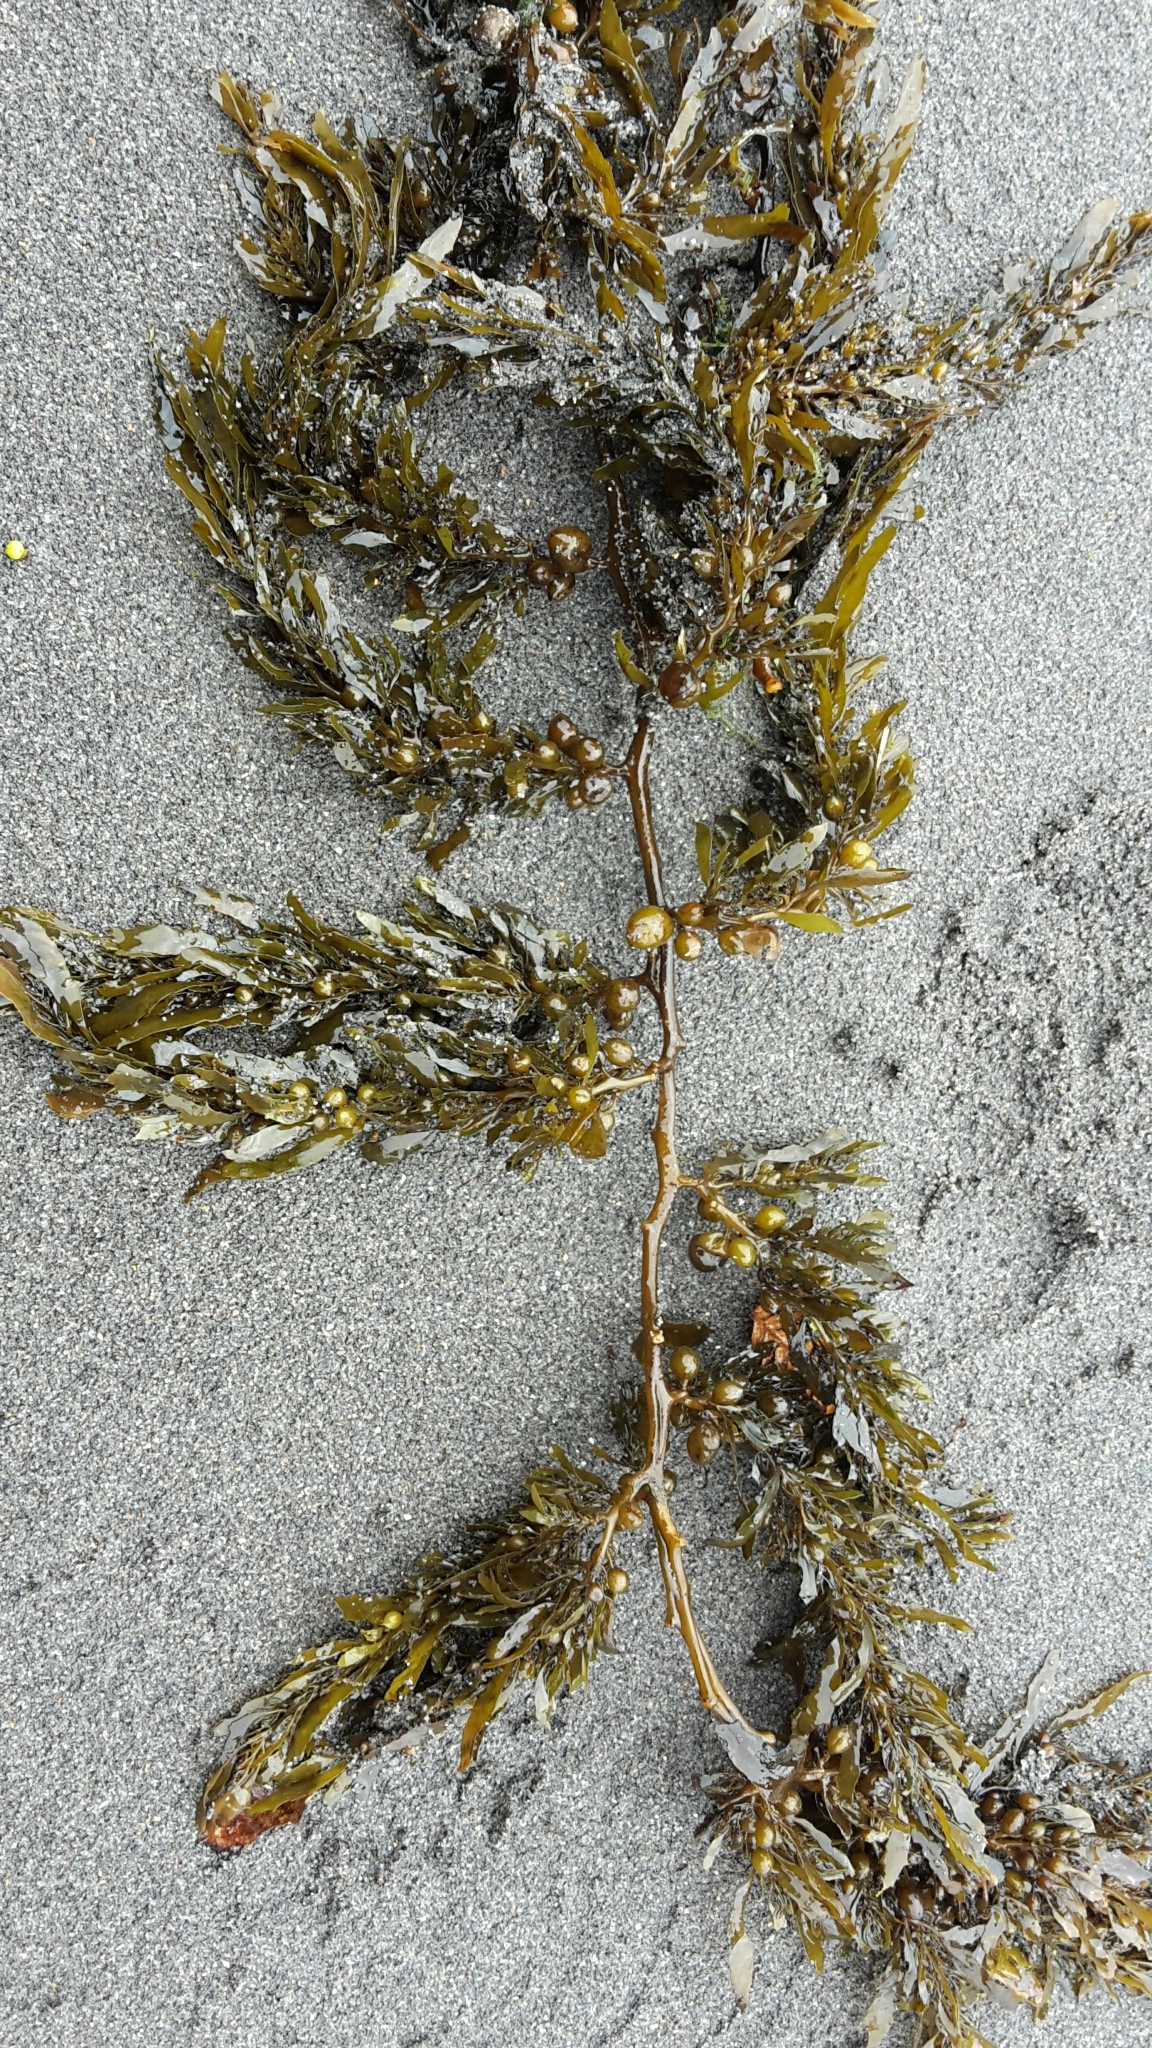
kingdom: Chromista
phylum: Ochrophyta
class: Phaeophyceae
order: Fucales
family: Sargassaceae
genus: Sargassum
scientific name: Sargassum sinclairii
